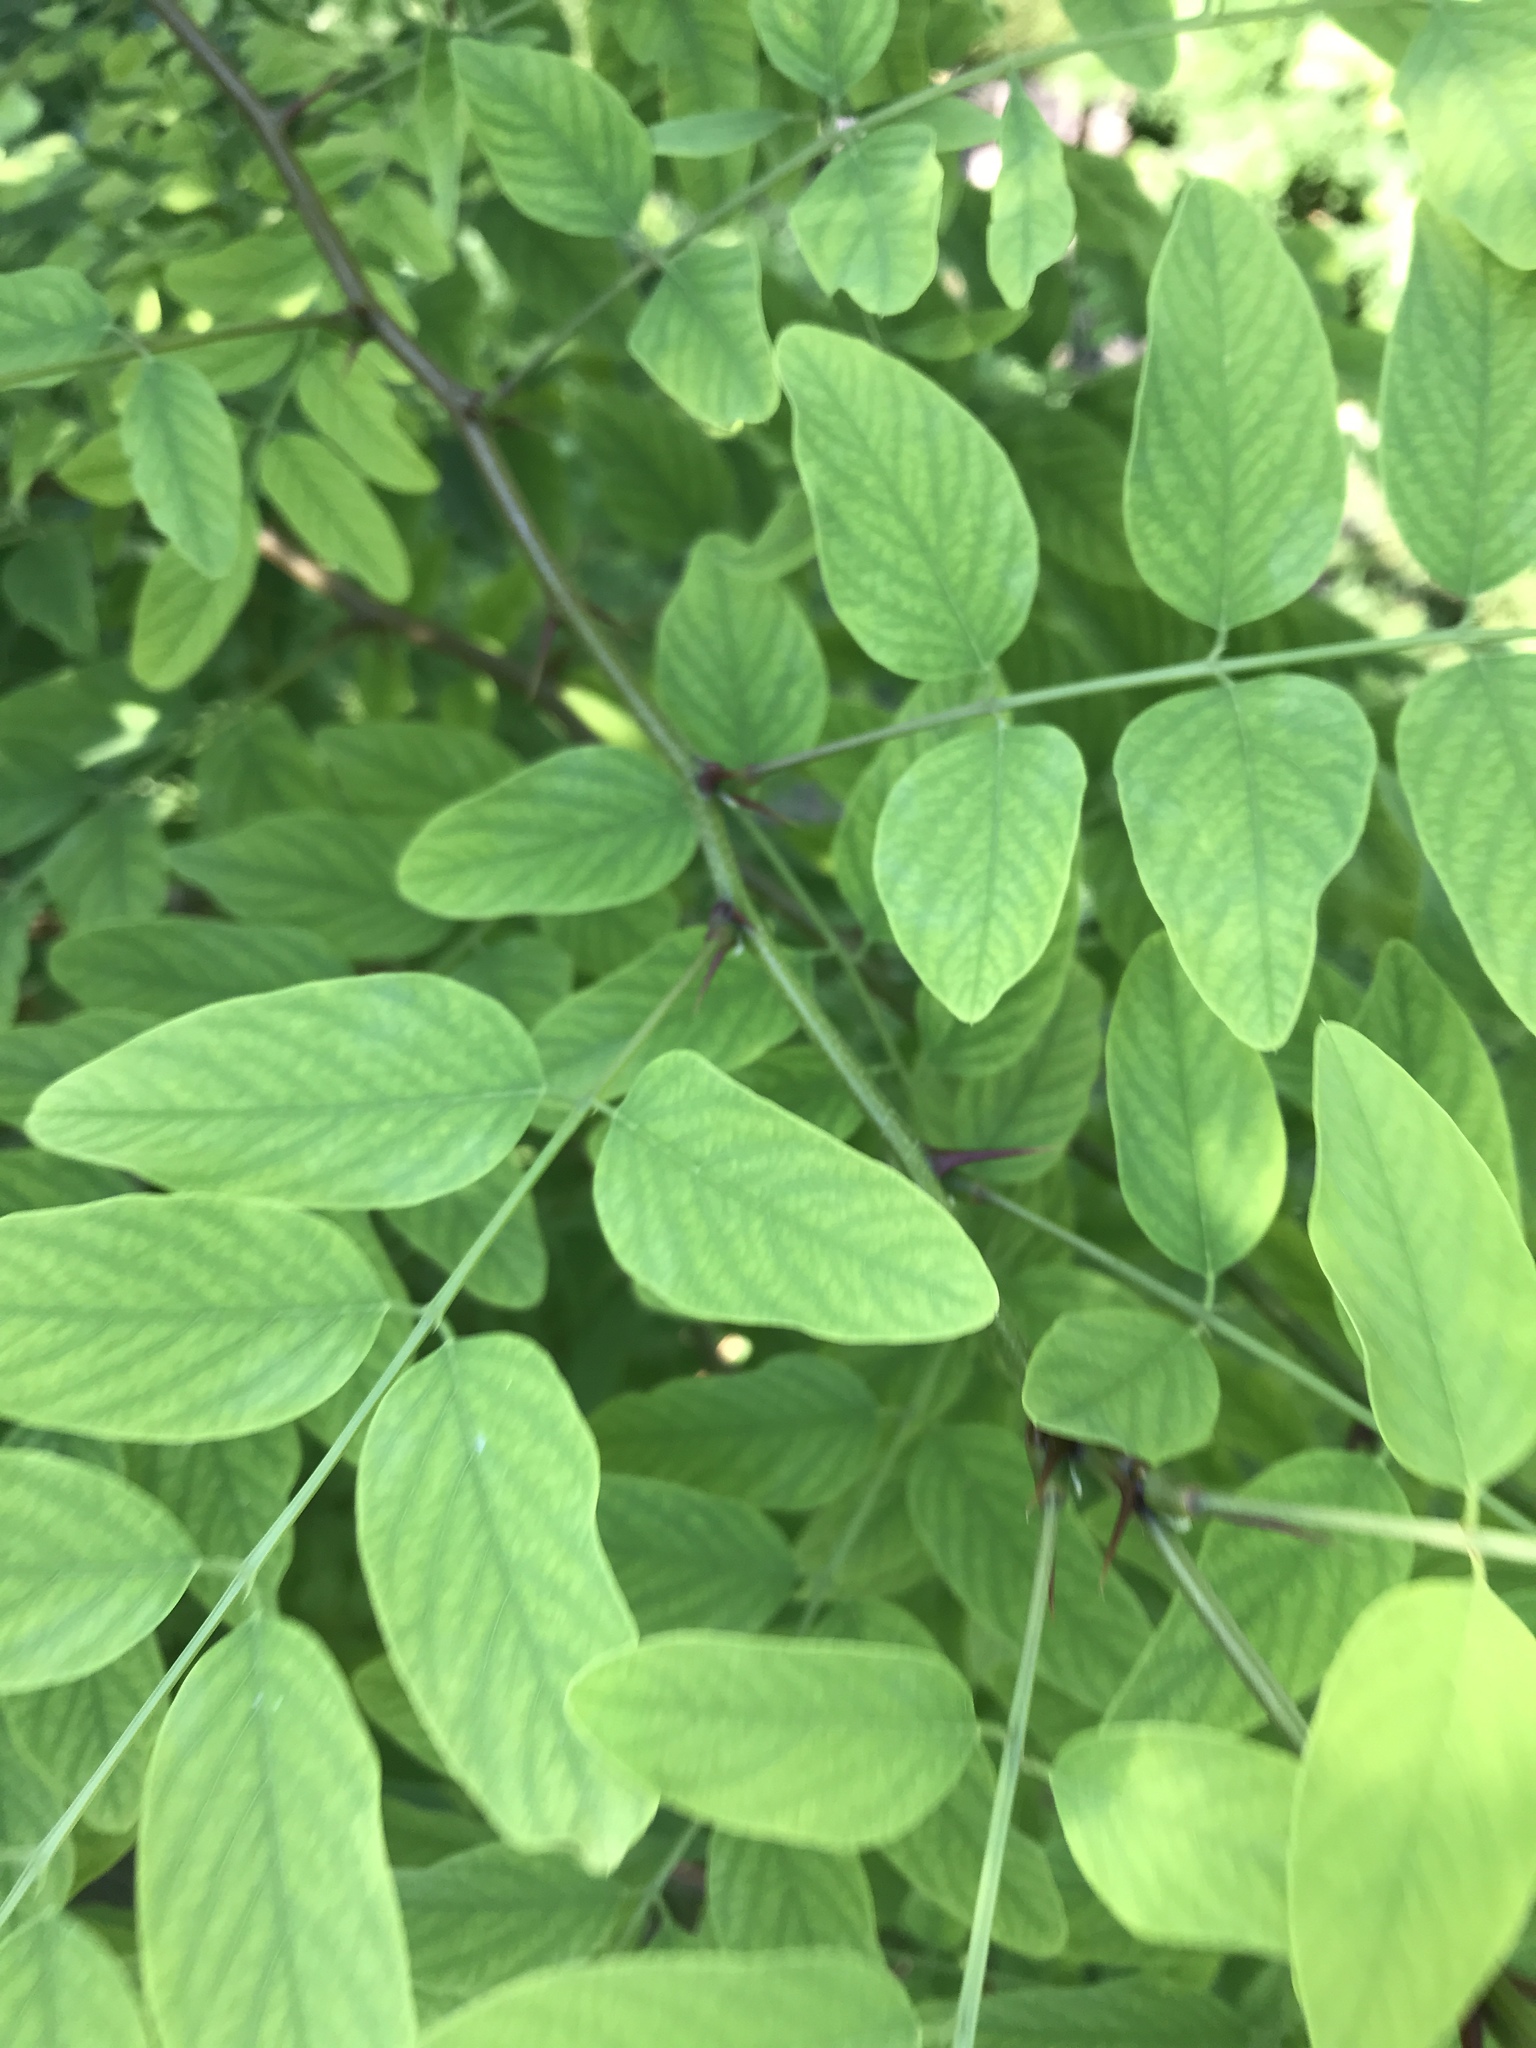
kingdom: Plantae
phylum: Tracheophyta
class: Magnoliopsida
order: Fabales
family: Fabaceae
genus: Robinia
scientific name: Robinia pseudoacacia
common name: Black locust
